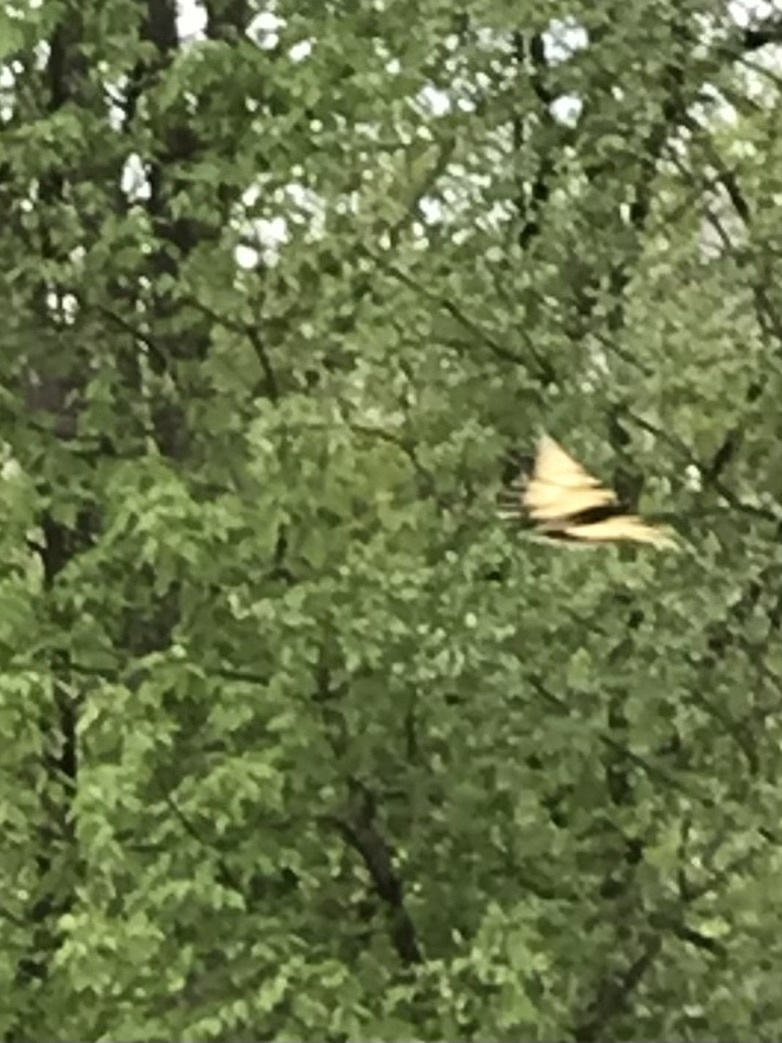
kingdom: Animalia
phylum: Arthropoda
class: Insecta
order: Lepidoptera
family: Papilionidae
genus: Papilio
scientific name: Papilio glaucus
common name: Tiger swallowtail
